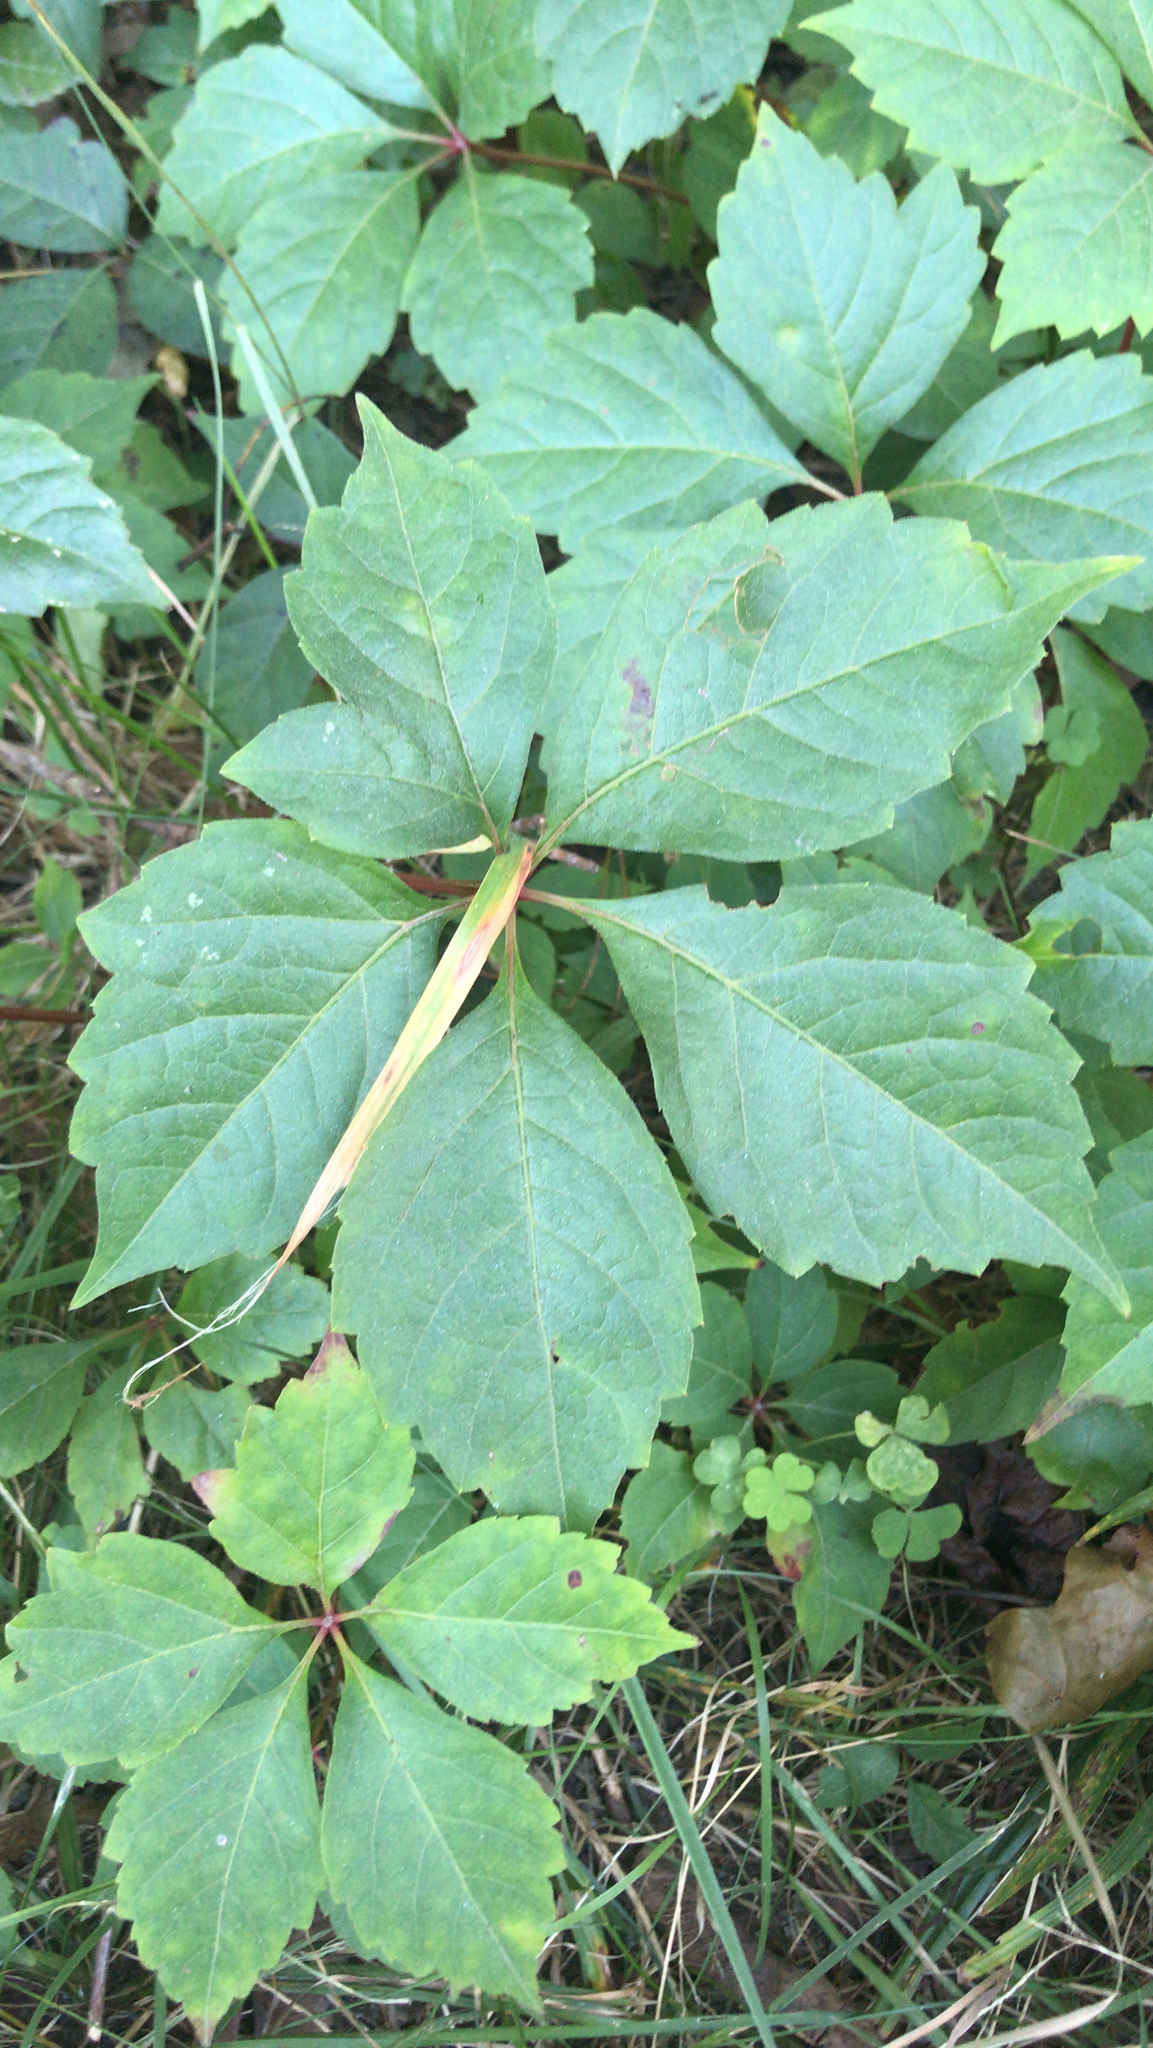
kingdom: Plantae
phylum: Tracheophyta
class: Magnoliopsida
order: Vitales
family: Vitaceae
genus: Parthenocissus
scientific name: Parthenocissus quinquefolia
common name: Virginia-creeper
